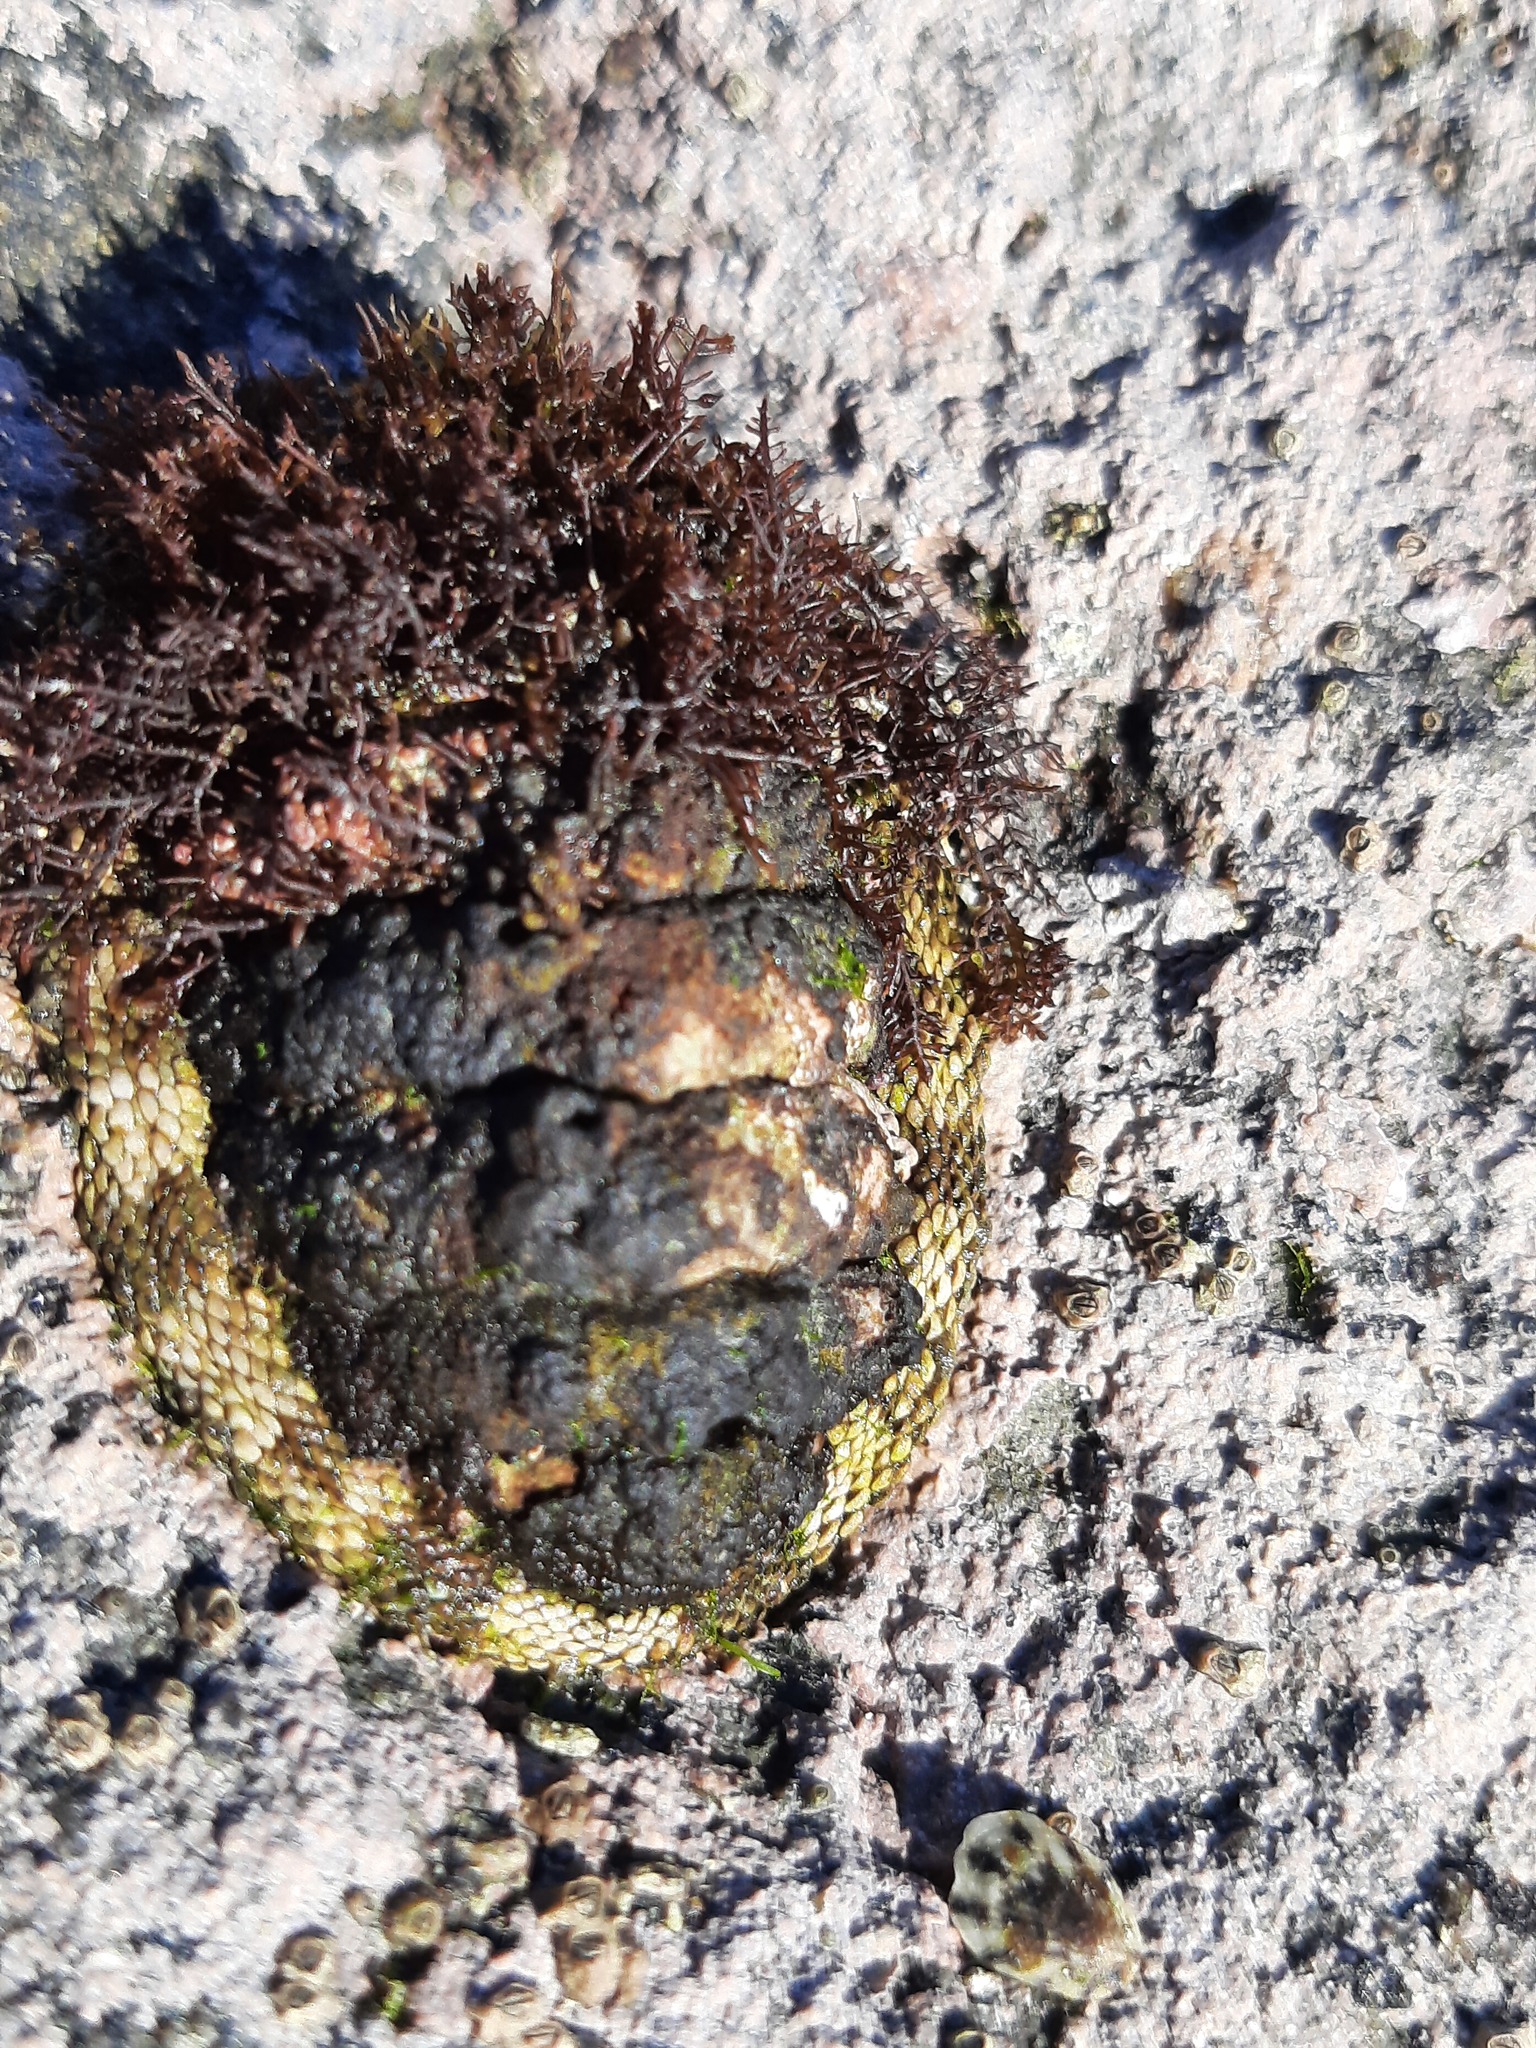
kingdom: Animalia
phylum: Mollusca
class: Polyplacophora
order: Chitonida
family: Chitonidae
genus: Sypharochiton
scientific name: Sypharochiton pelliserpentis
